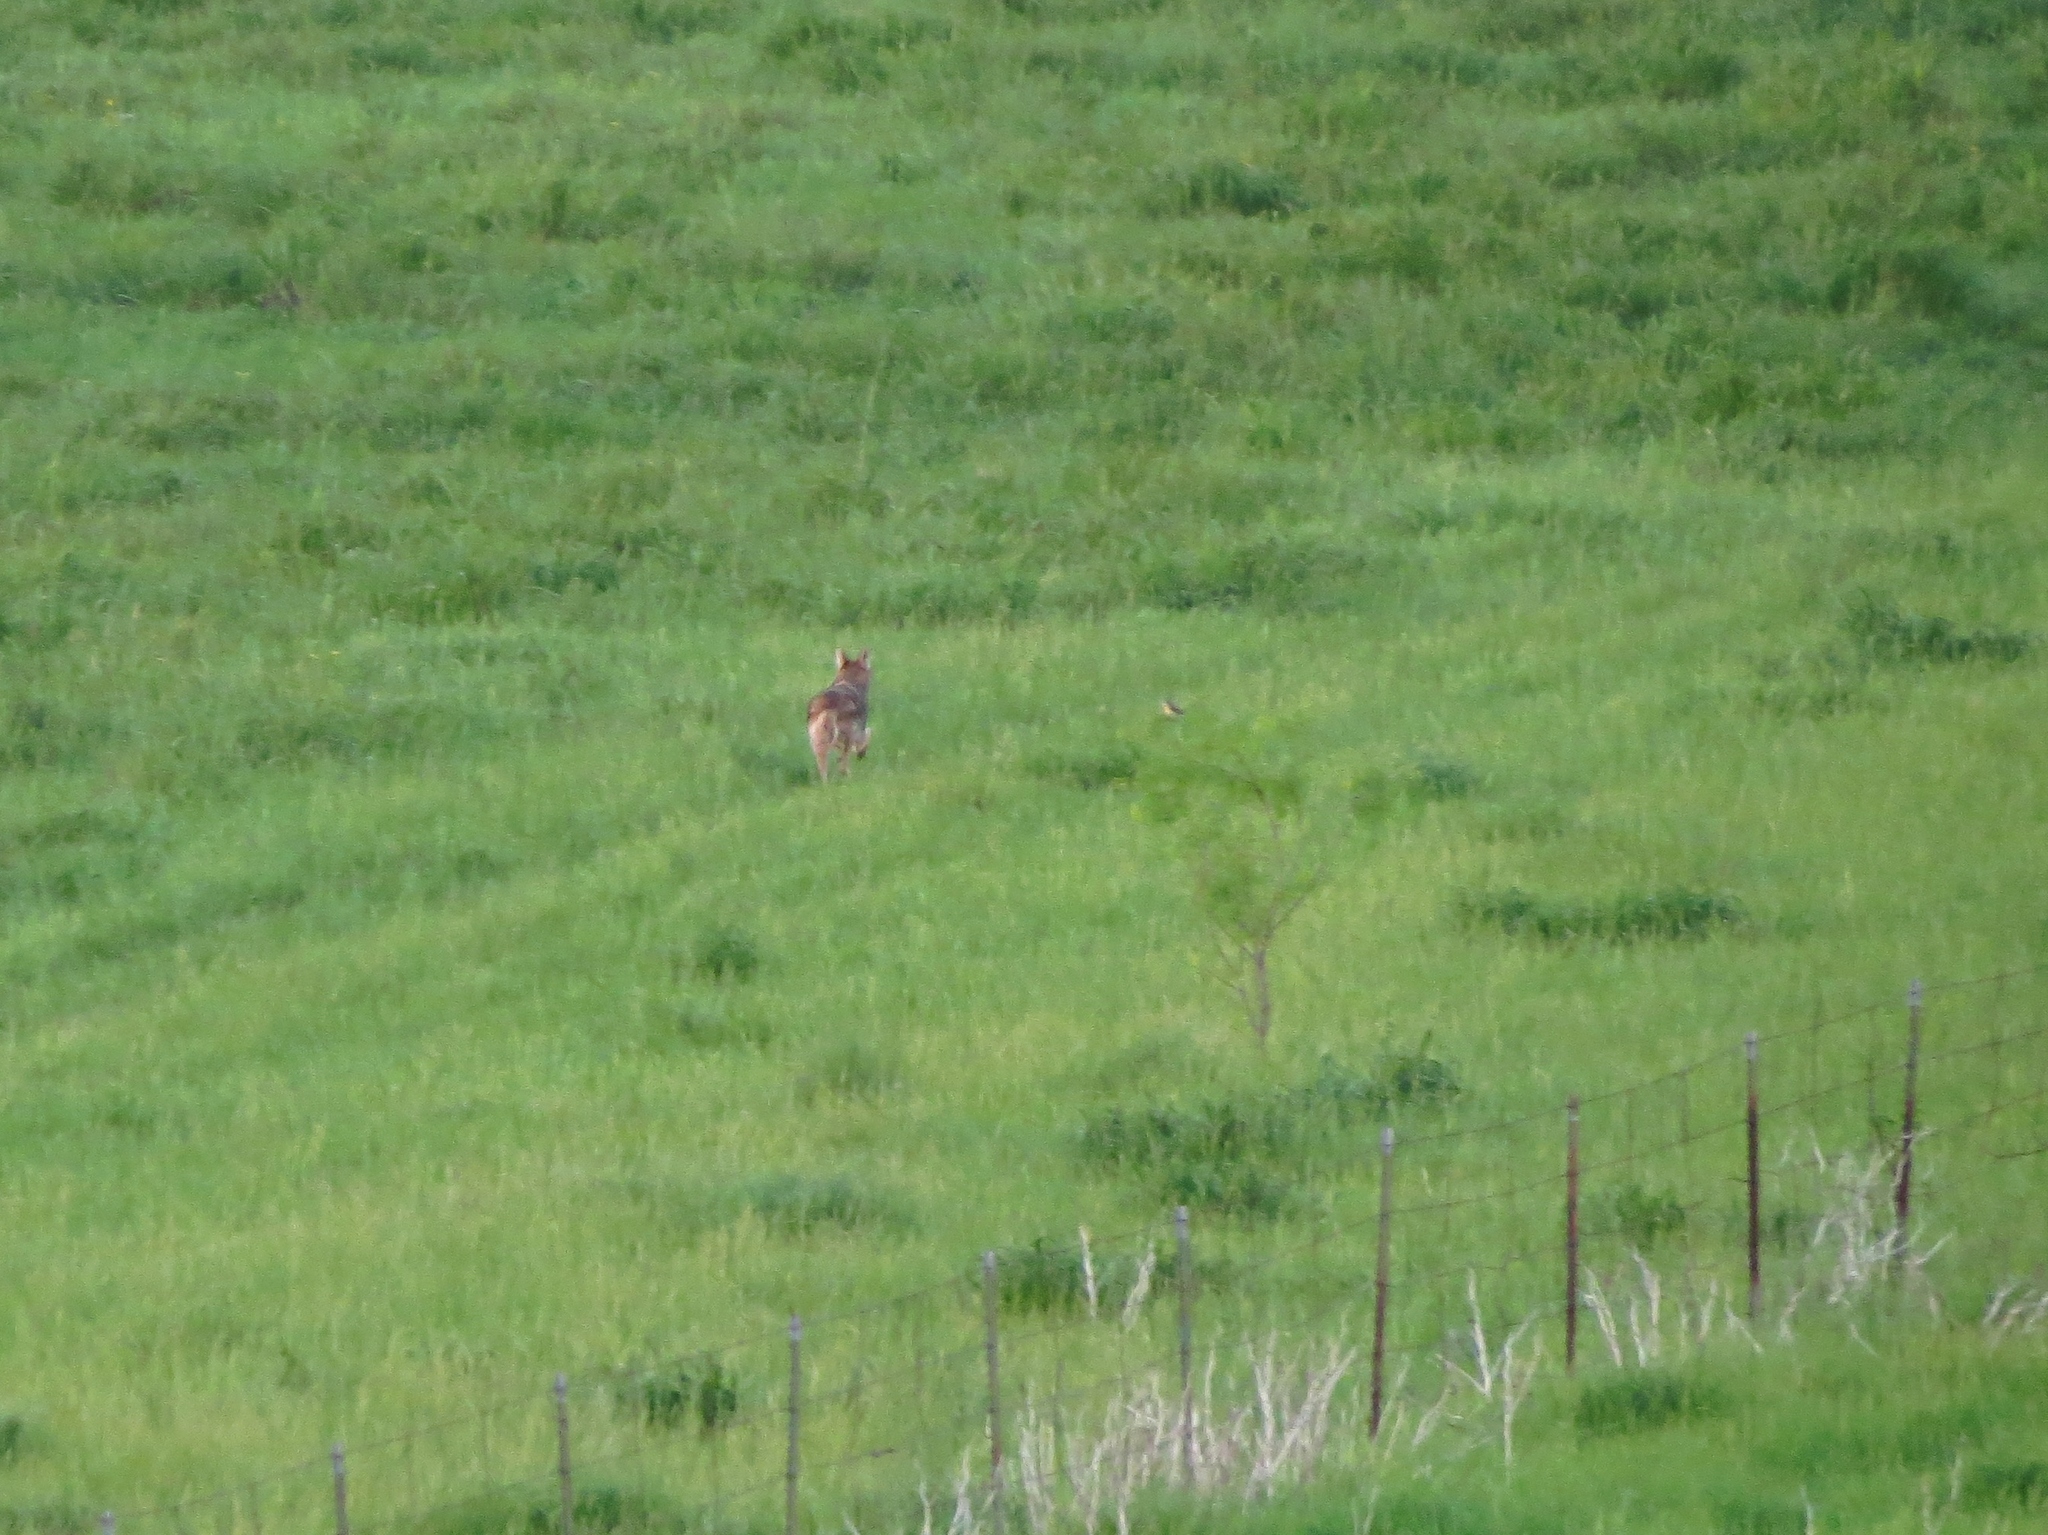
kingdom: Animalia
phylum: Chordata
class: Mammalia
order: Carnivora
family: Canidae
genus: Canis
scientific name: Canis latrans
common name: Coyote
